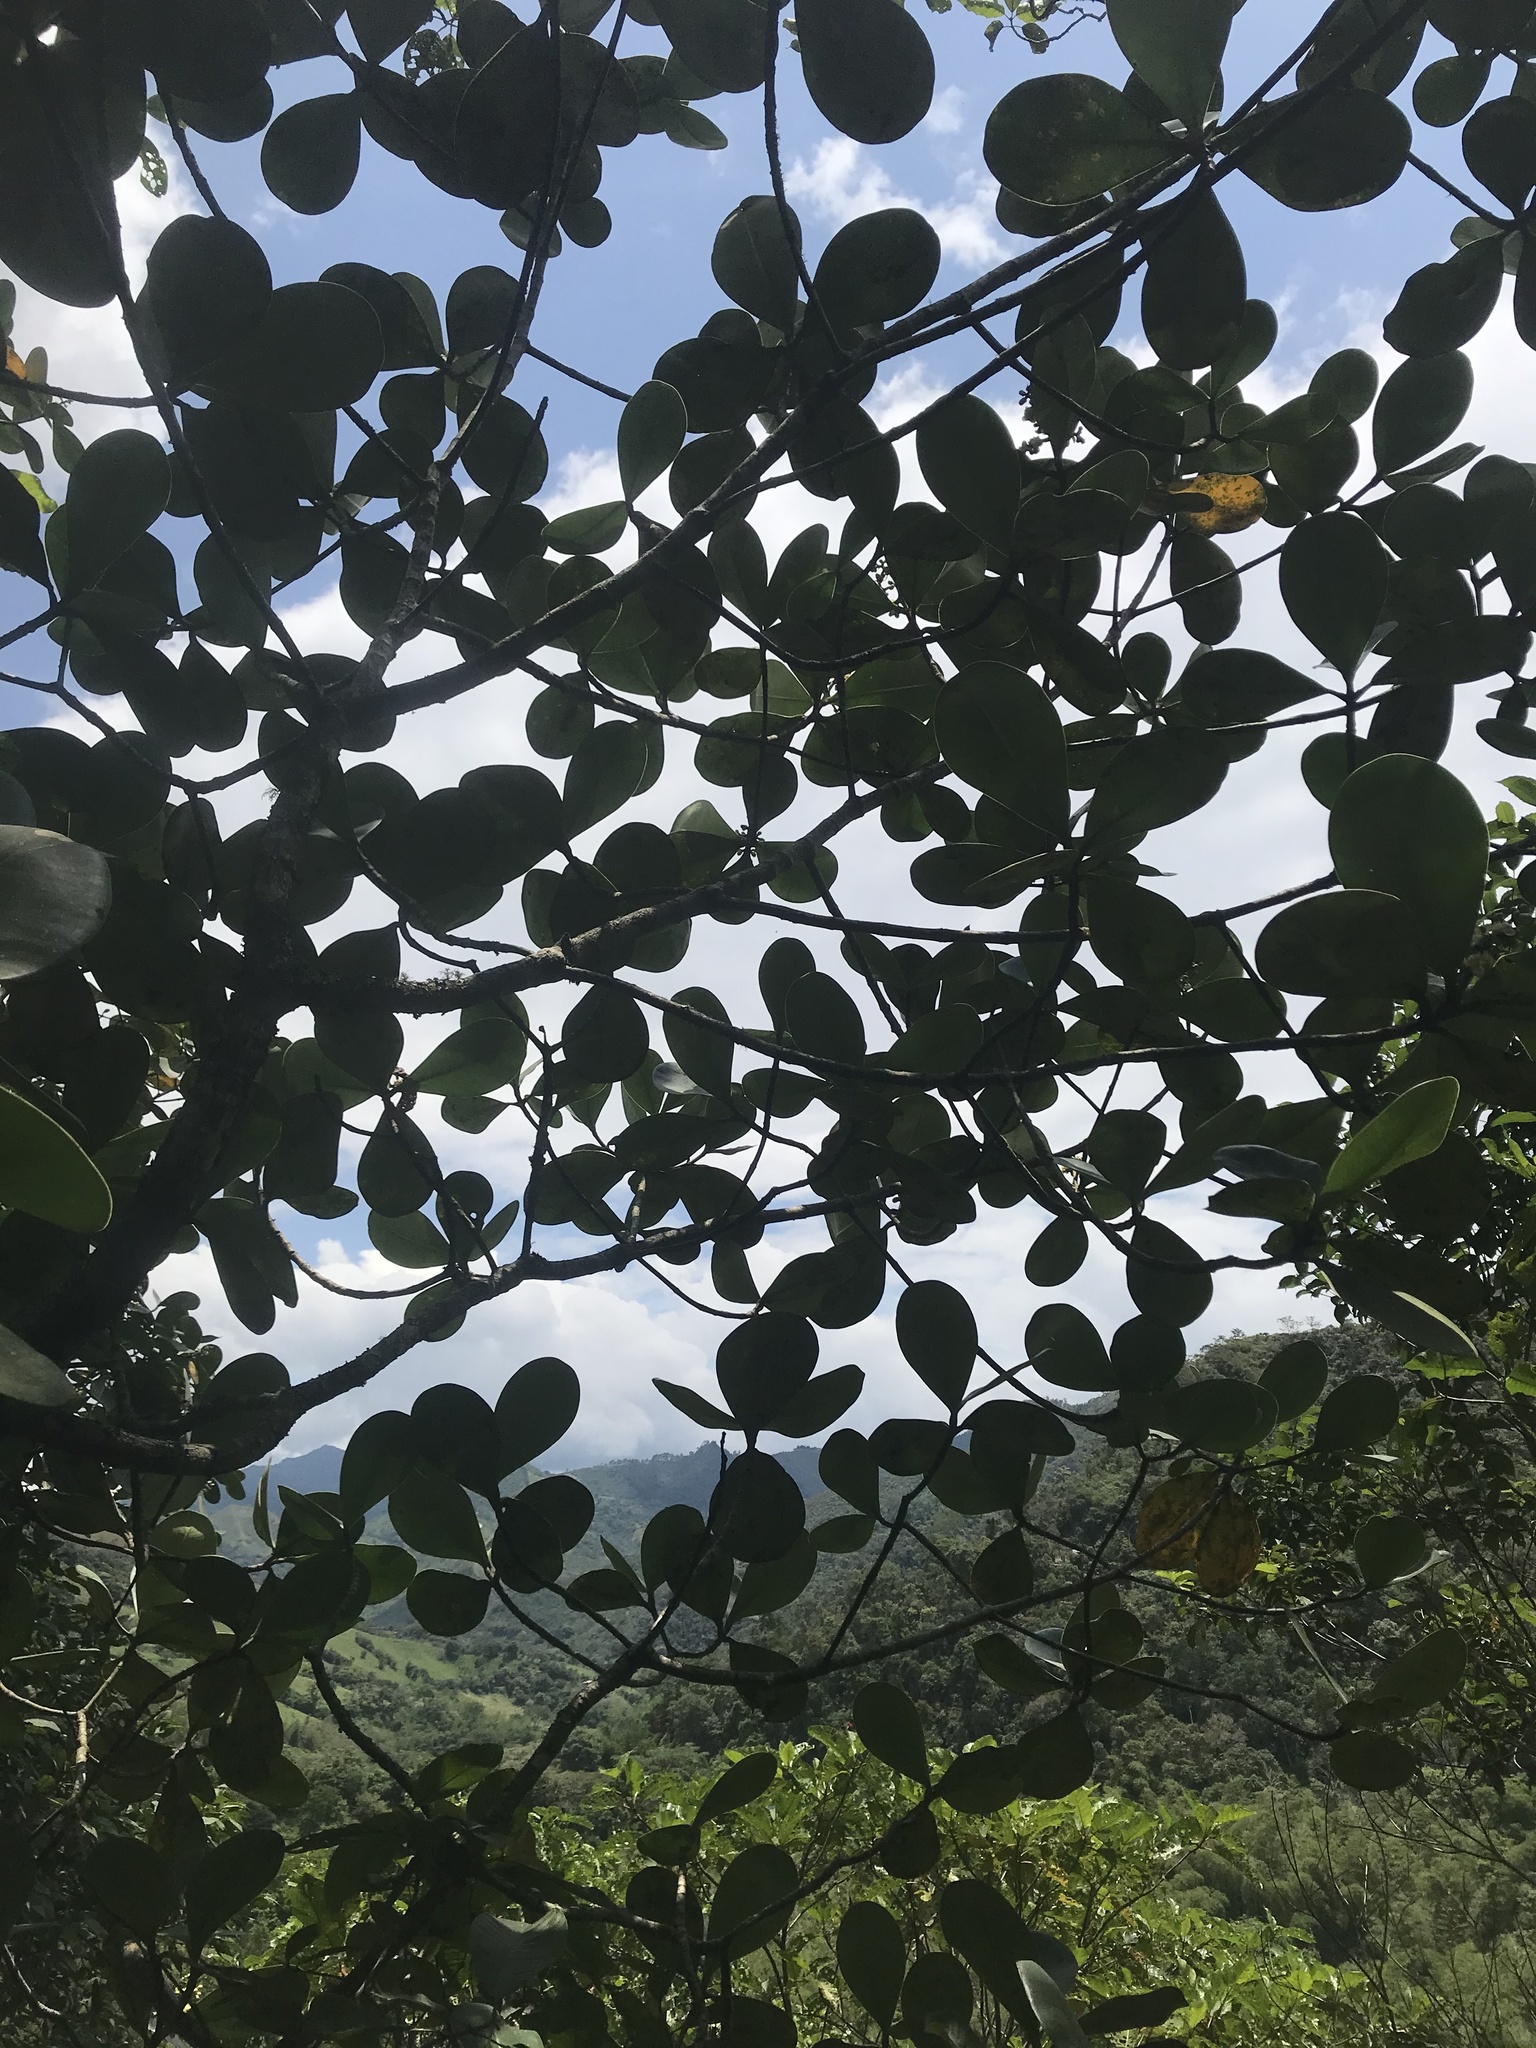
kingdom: Plantae
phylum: Tracheophyta
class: Magnoliopsida
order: Malpighiales
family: Clusiaceae
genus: Clusia
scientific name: Clusia multiflora
